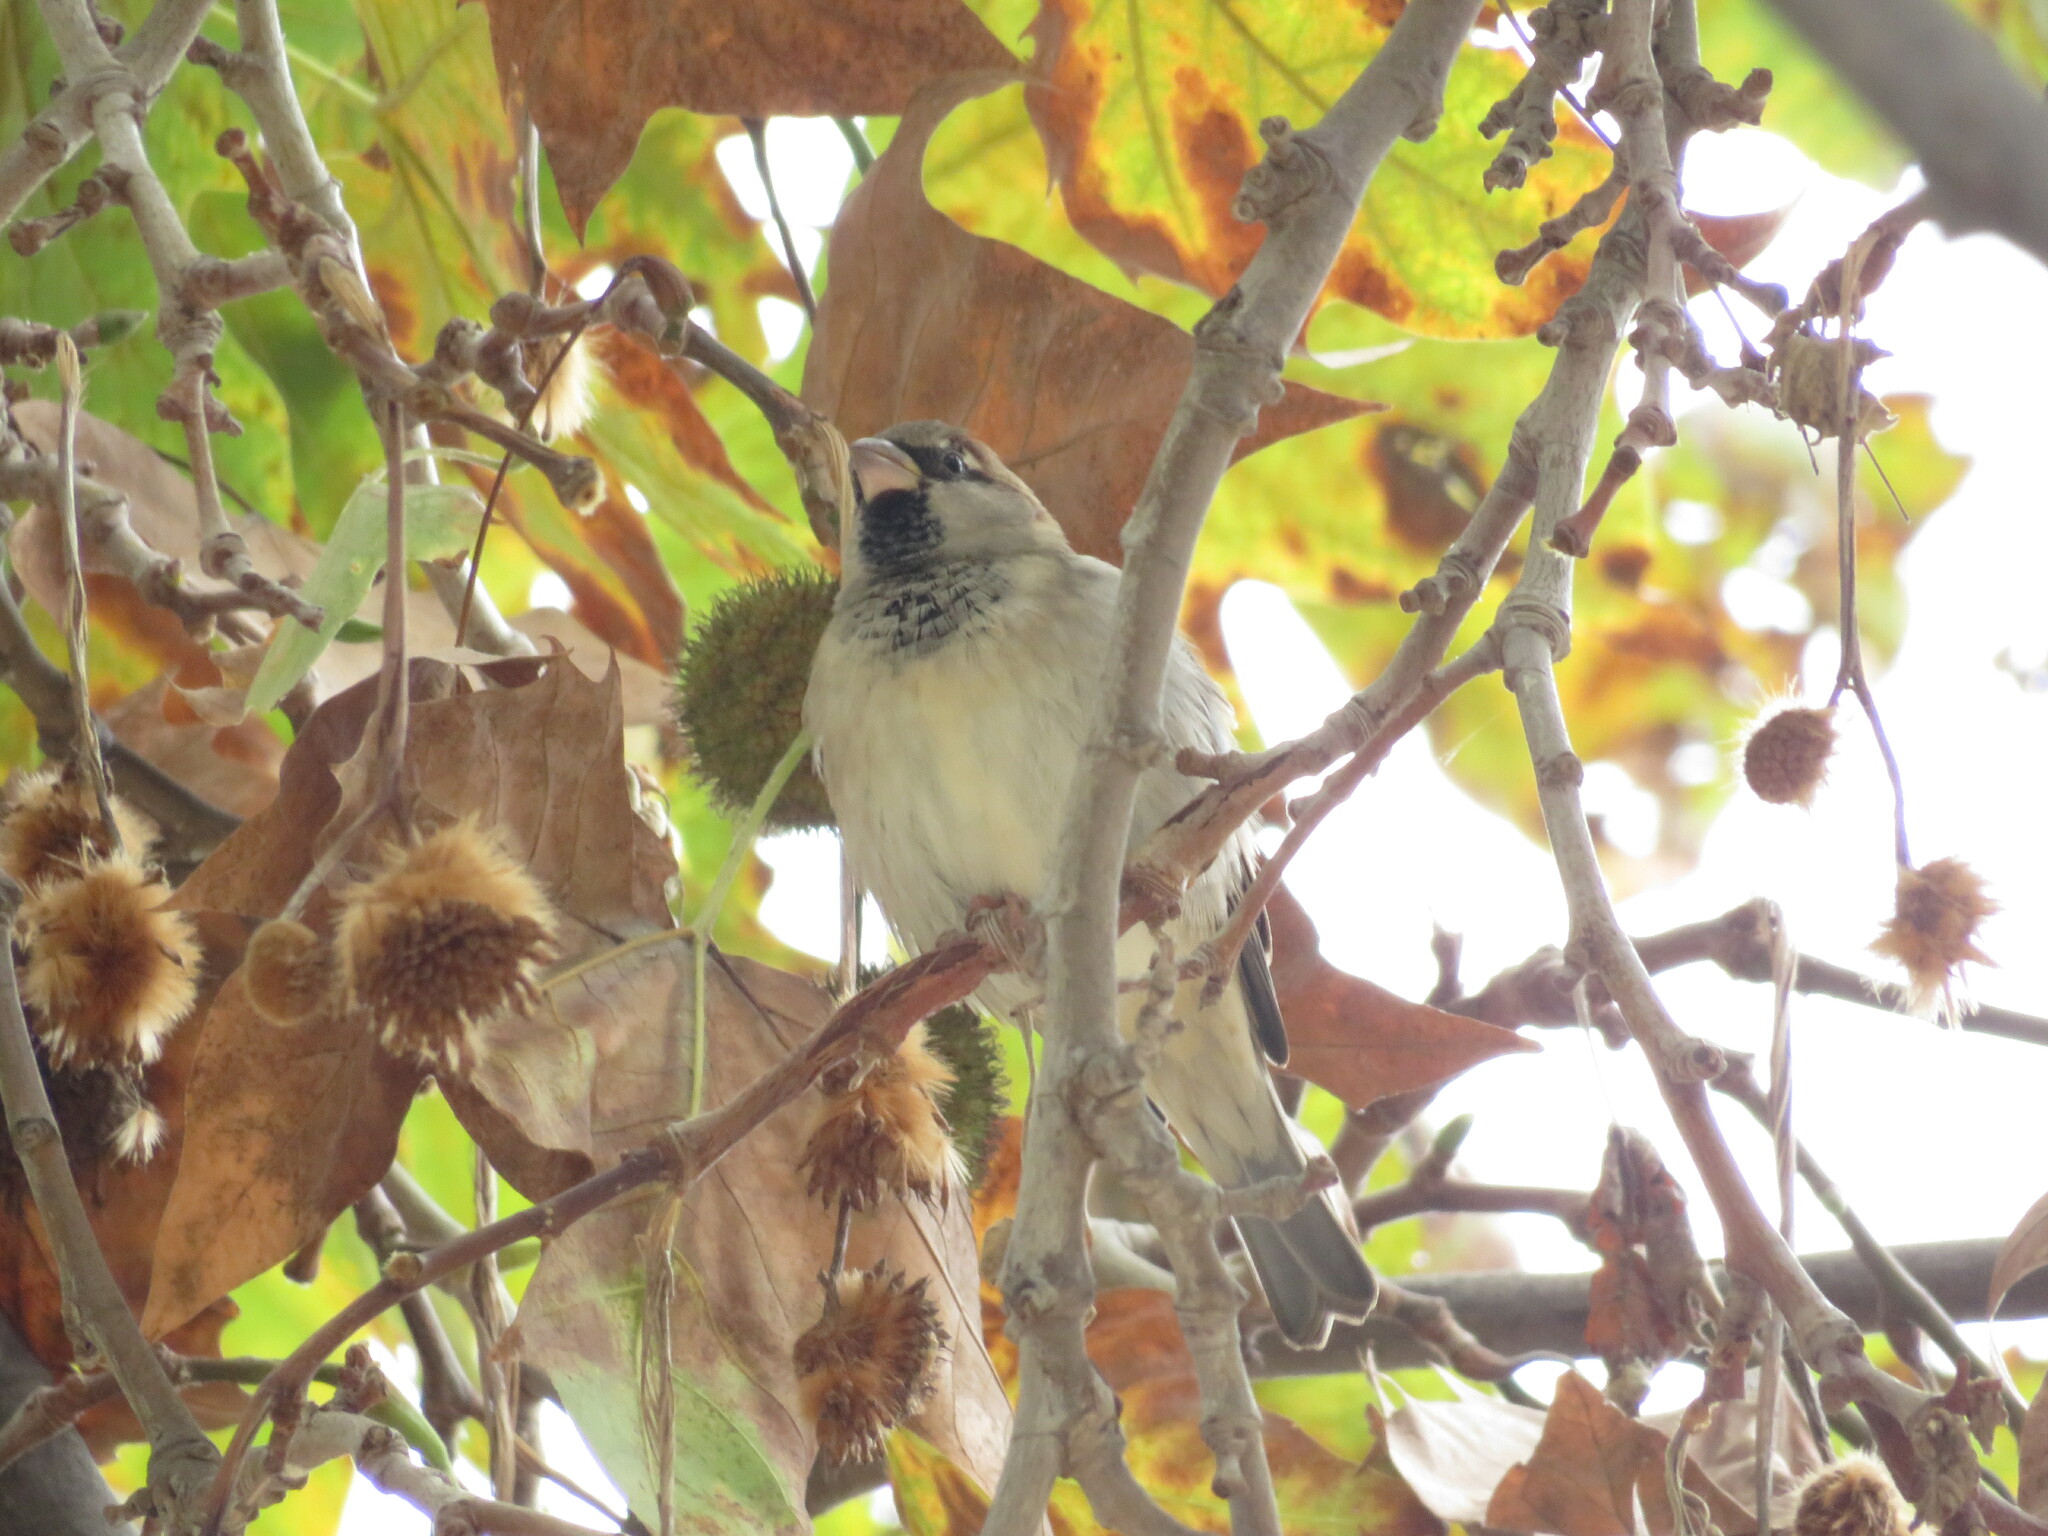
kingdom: Animalia
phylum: Chordata
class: Aves
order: Passeriformes
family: Passeridae
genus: Passer
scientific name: Passer domesticus
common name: House sparrow
